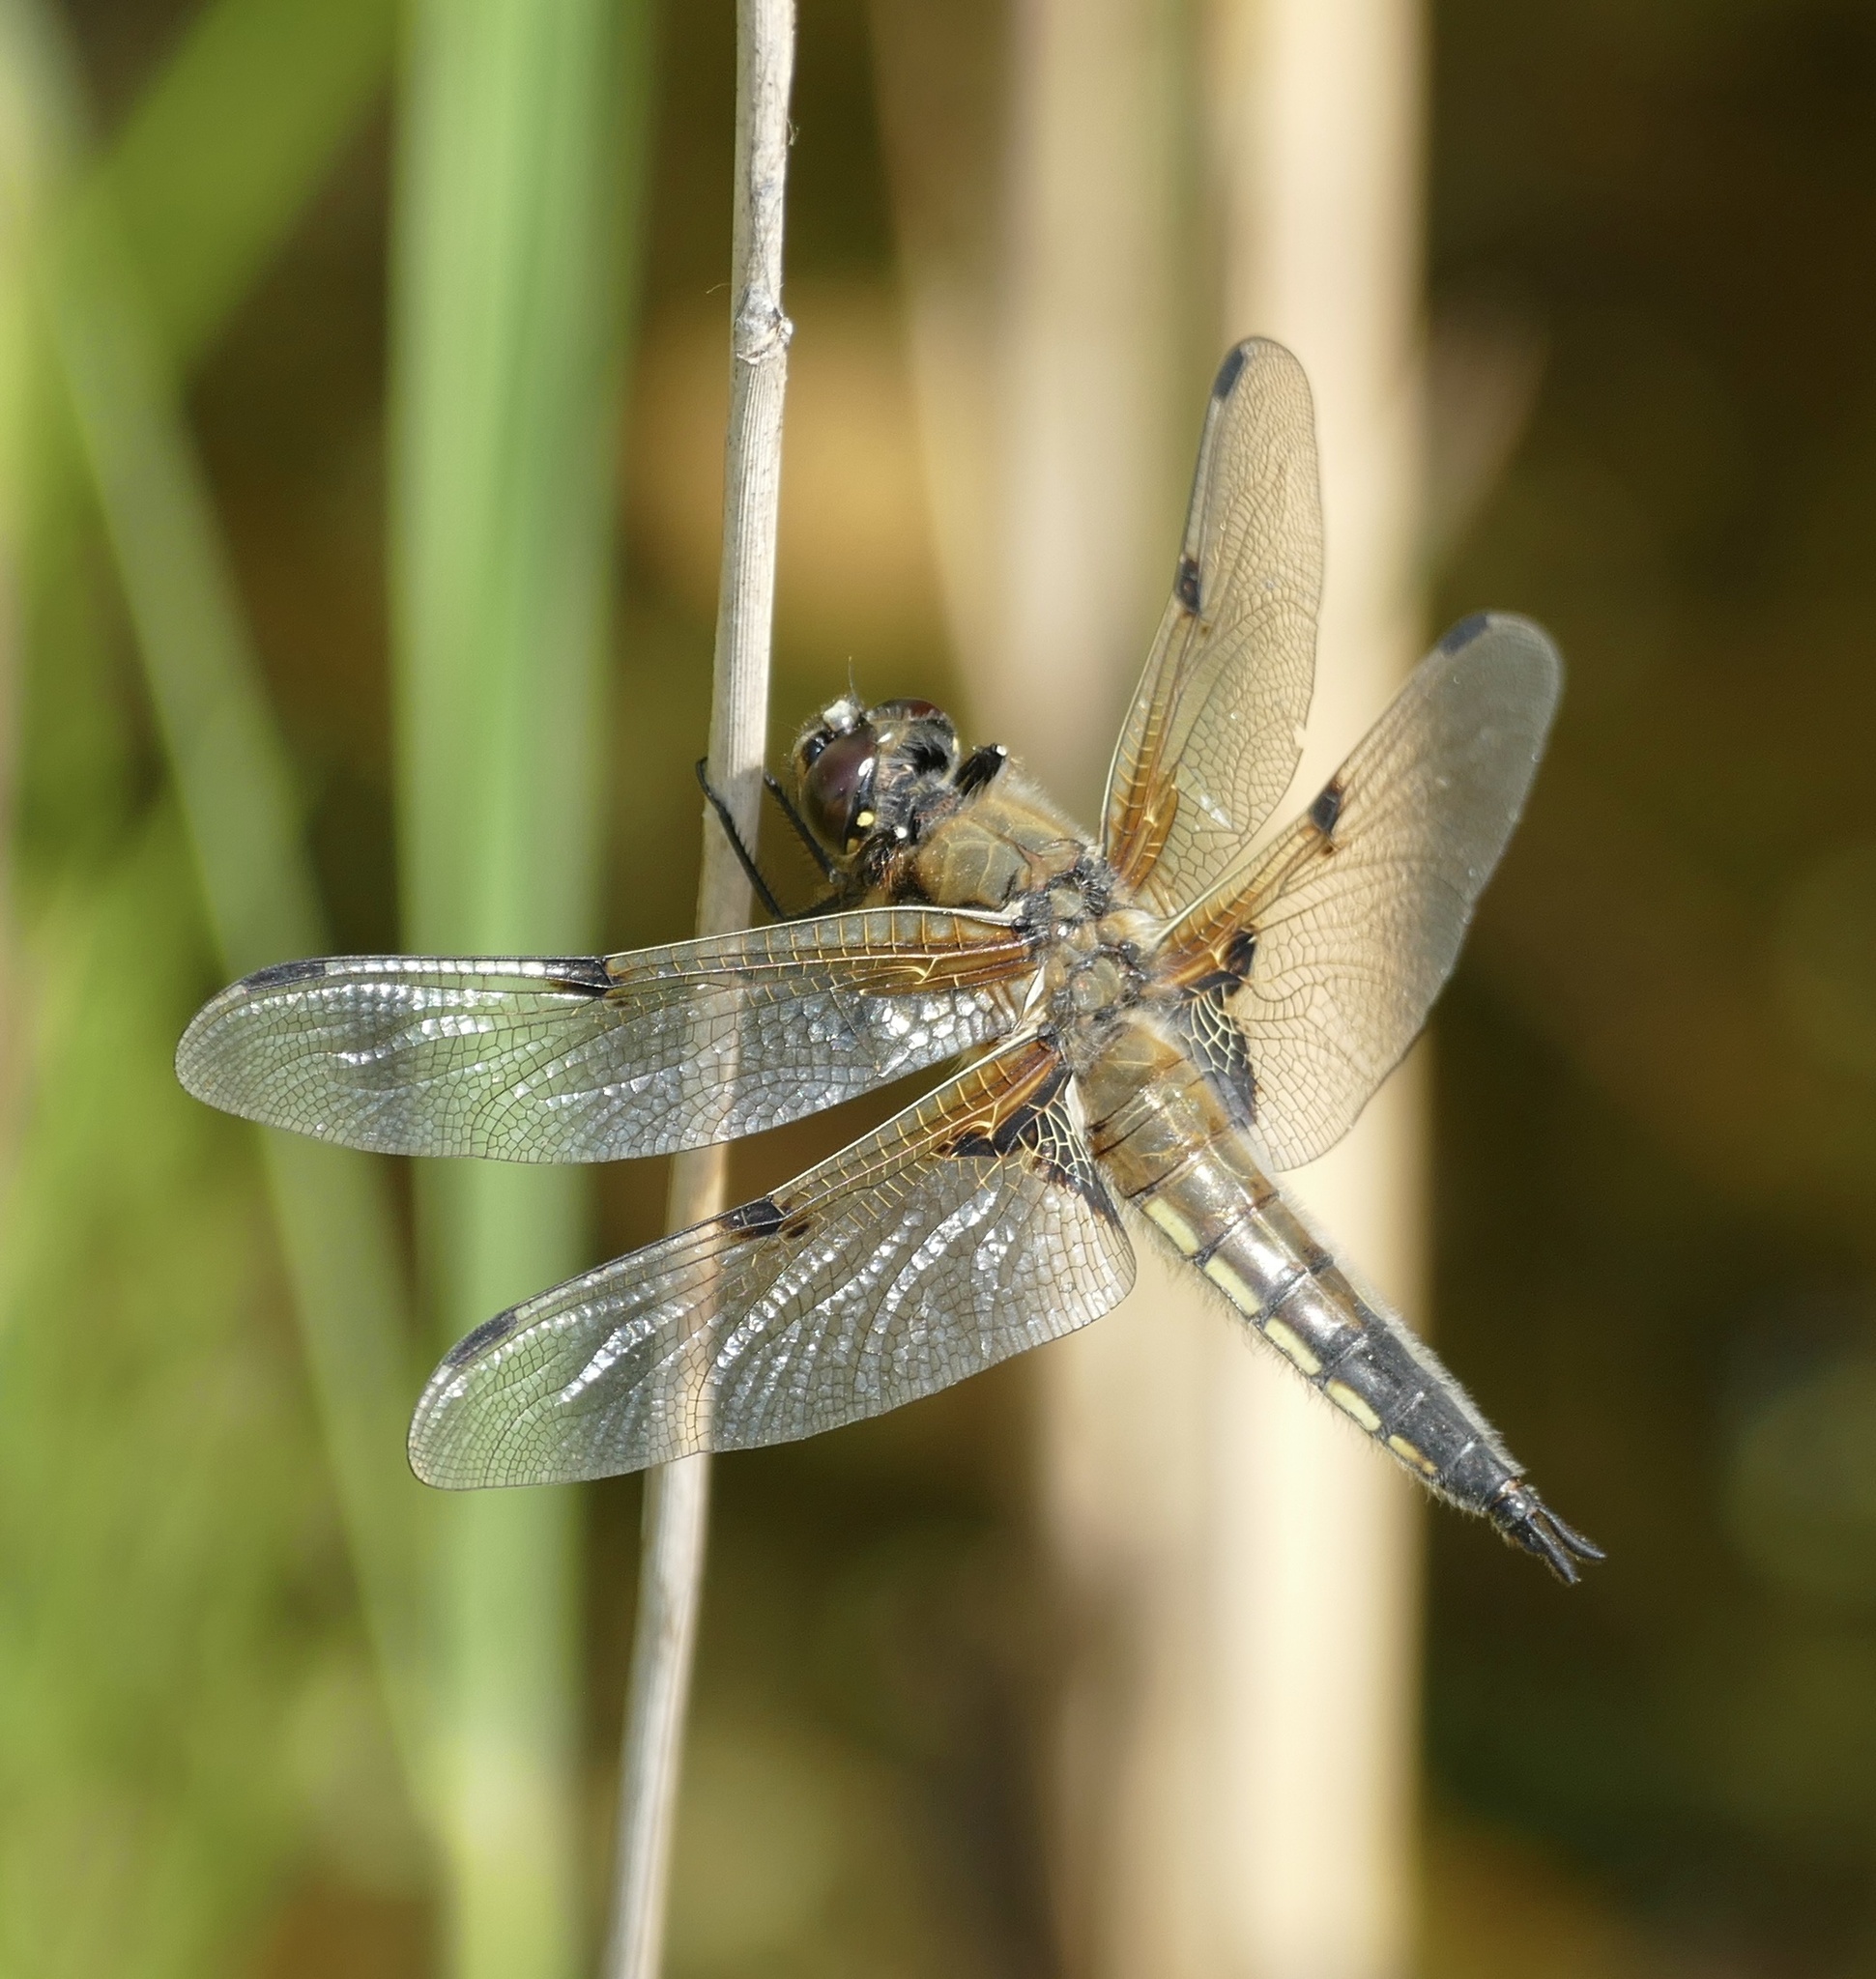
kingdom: Animalia
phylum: Arthropoda
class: Insecta
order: Odonata
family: Libellulidae
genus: Libellula
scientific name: Libellula quadrimaculata
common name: Four-spotted chaser
